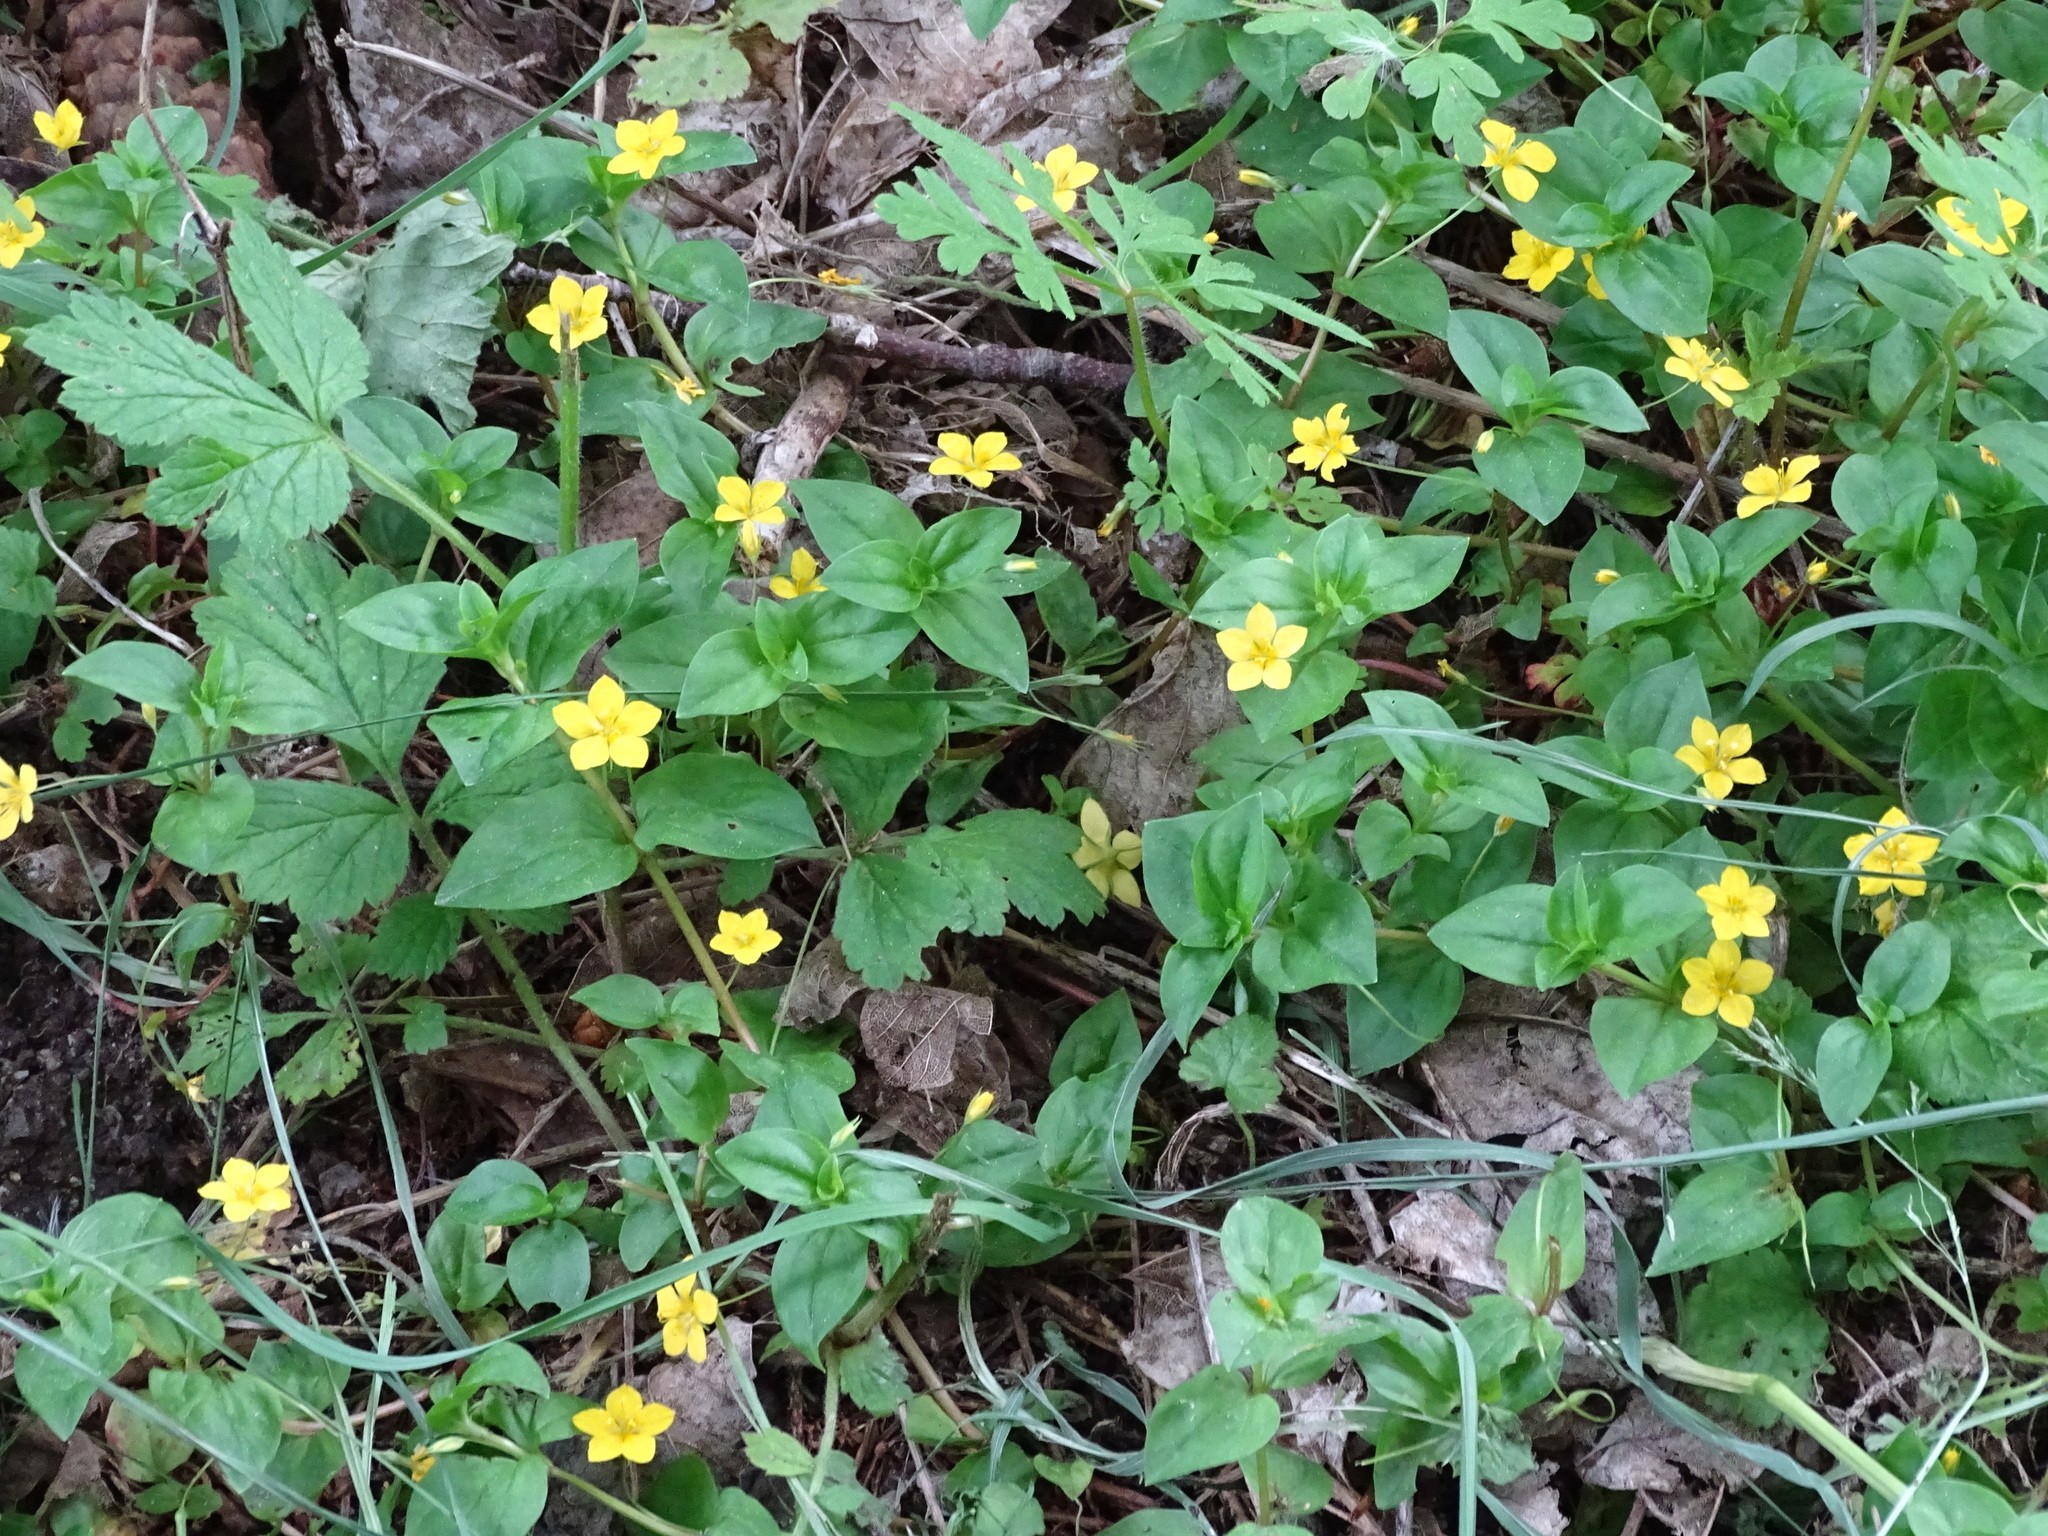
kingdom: Plantae
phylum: Tracheophyta
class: Magnoliopsida
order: Ericales
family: Primulaceae
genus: Lysimachia
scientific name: Lysimachia nemorum
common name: Yellow pimpernel
